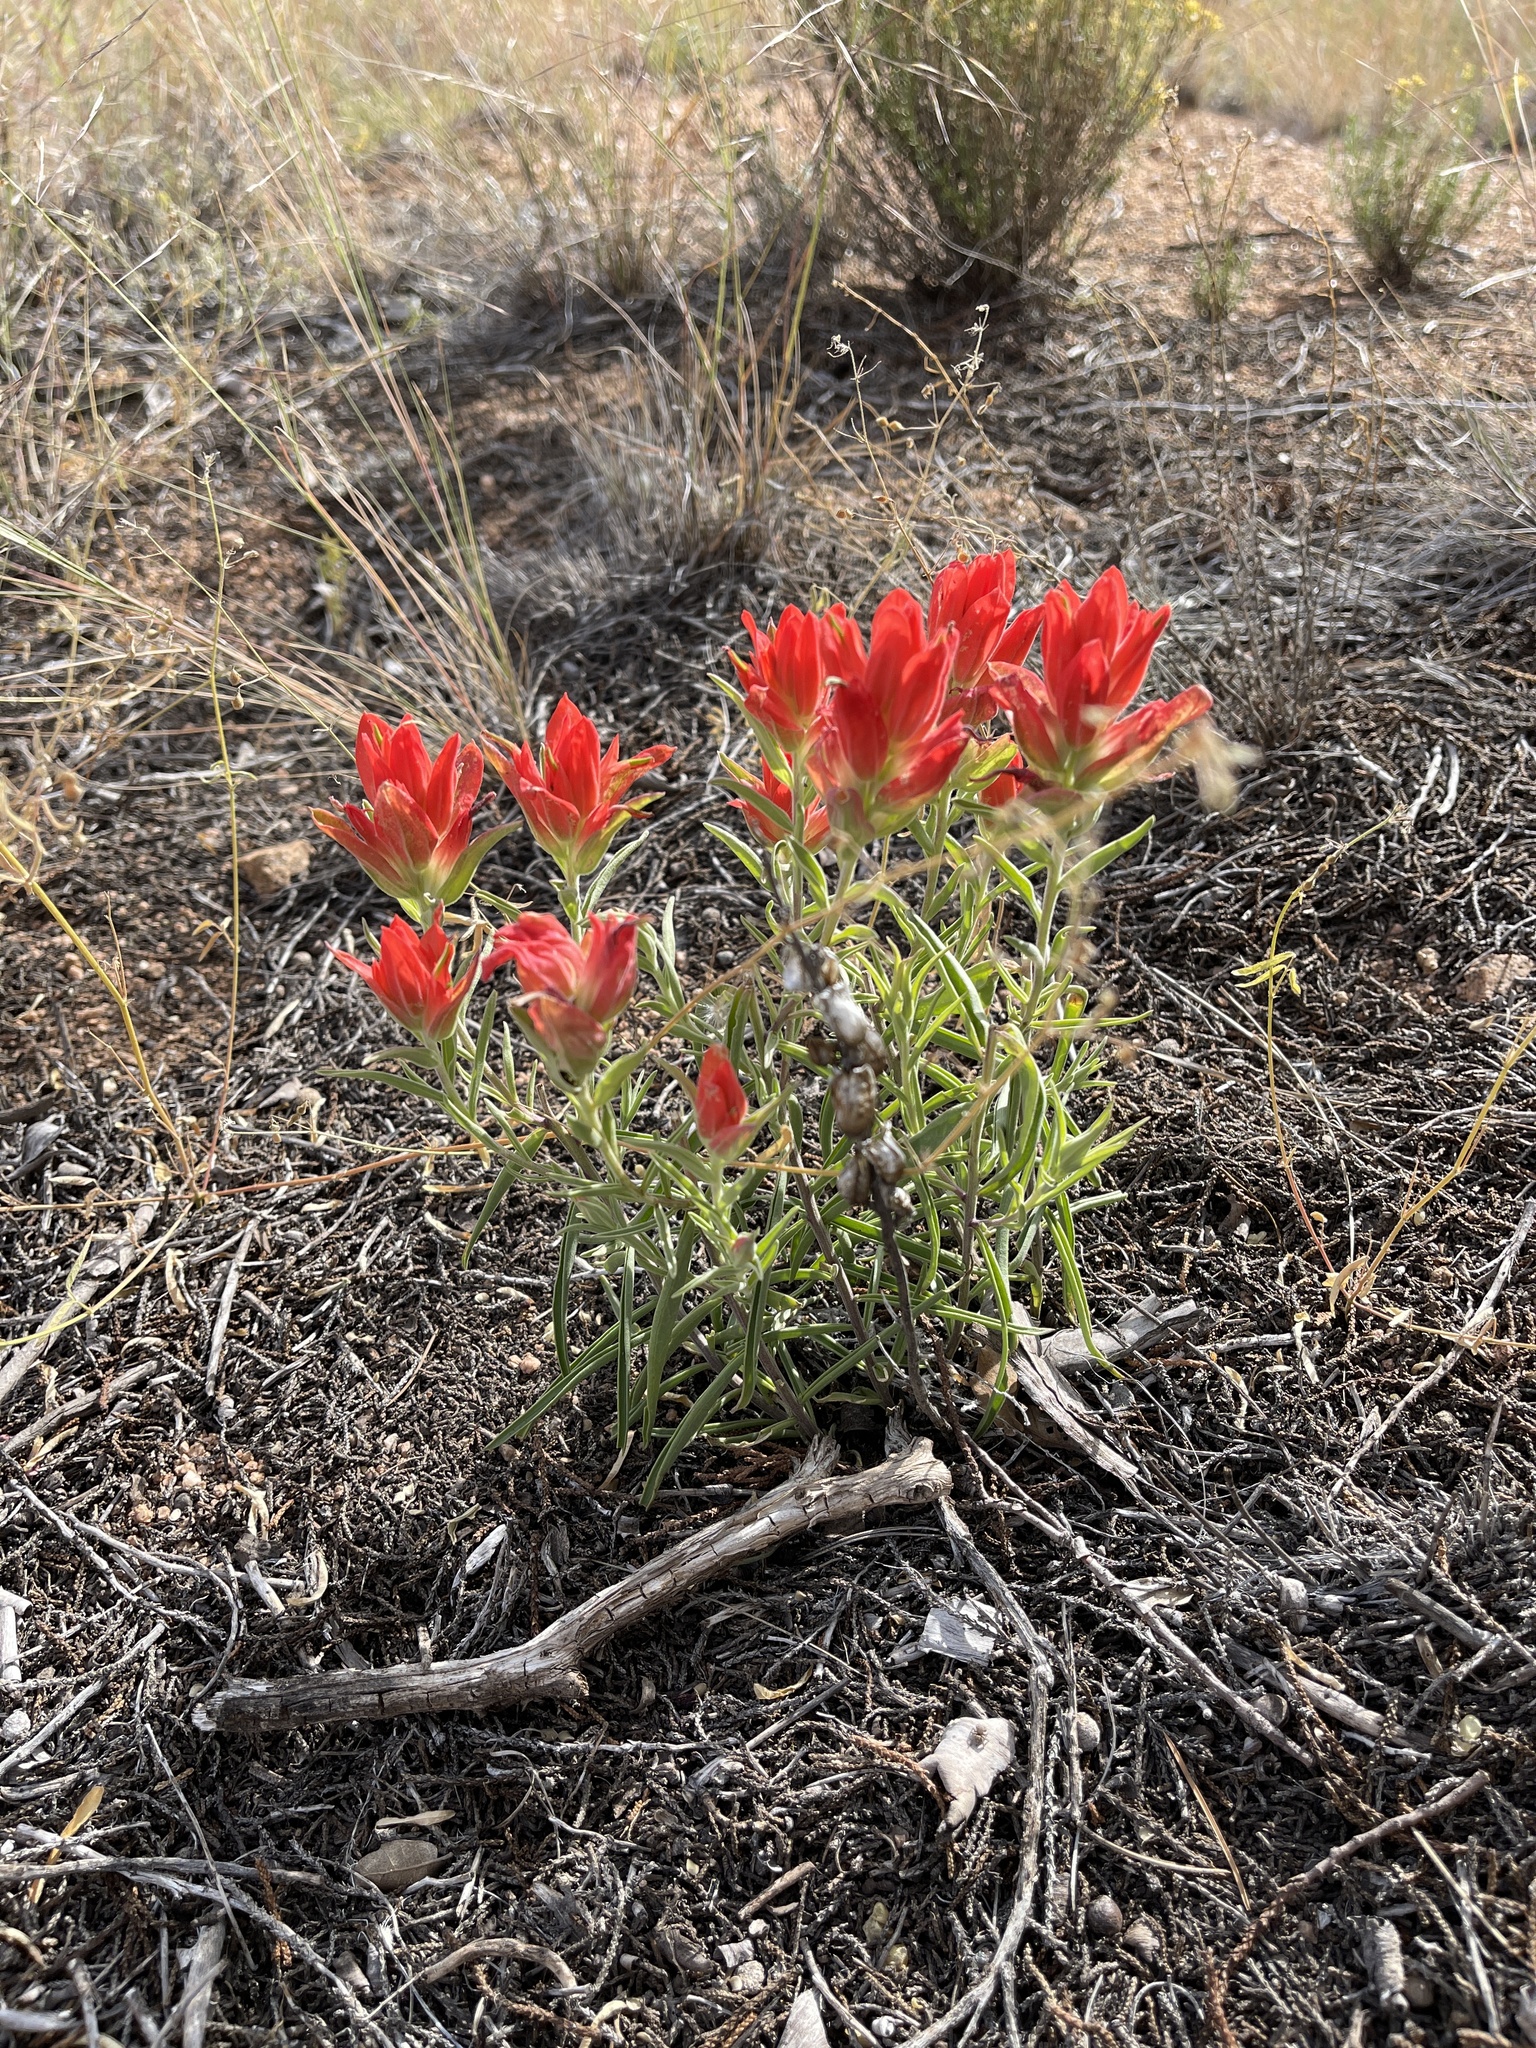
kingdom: Plantae
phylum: Tracheophyta
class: Magnoliopsida
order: Lamiales
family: Orobanchaceae
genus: Castilleja
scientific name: Castilleja integra
